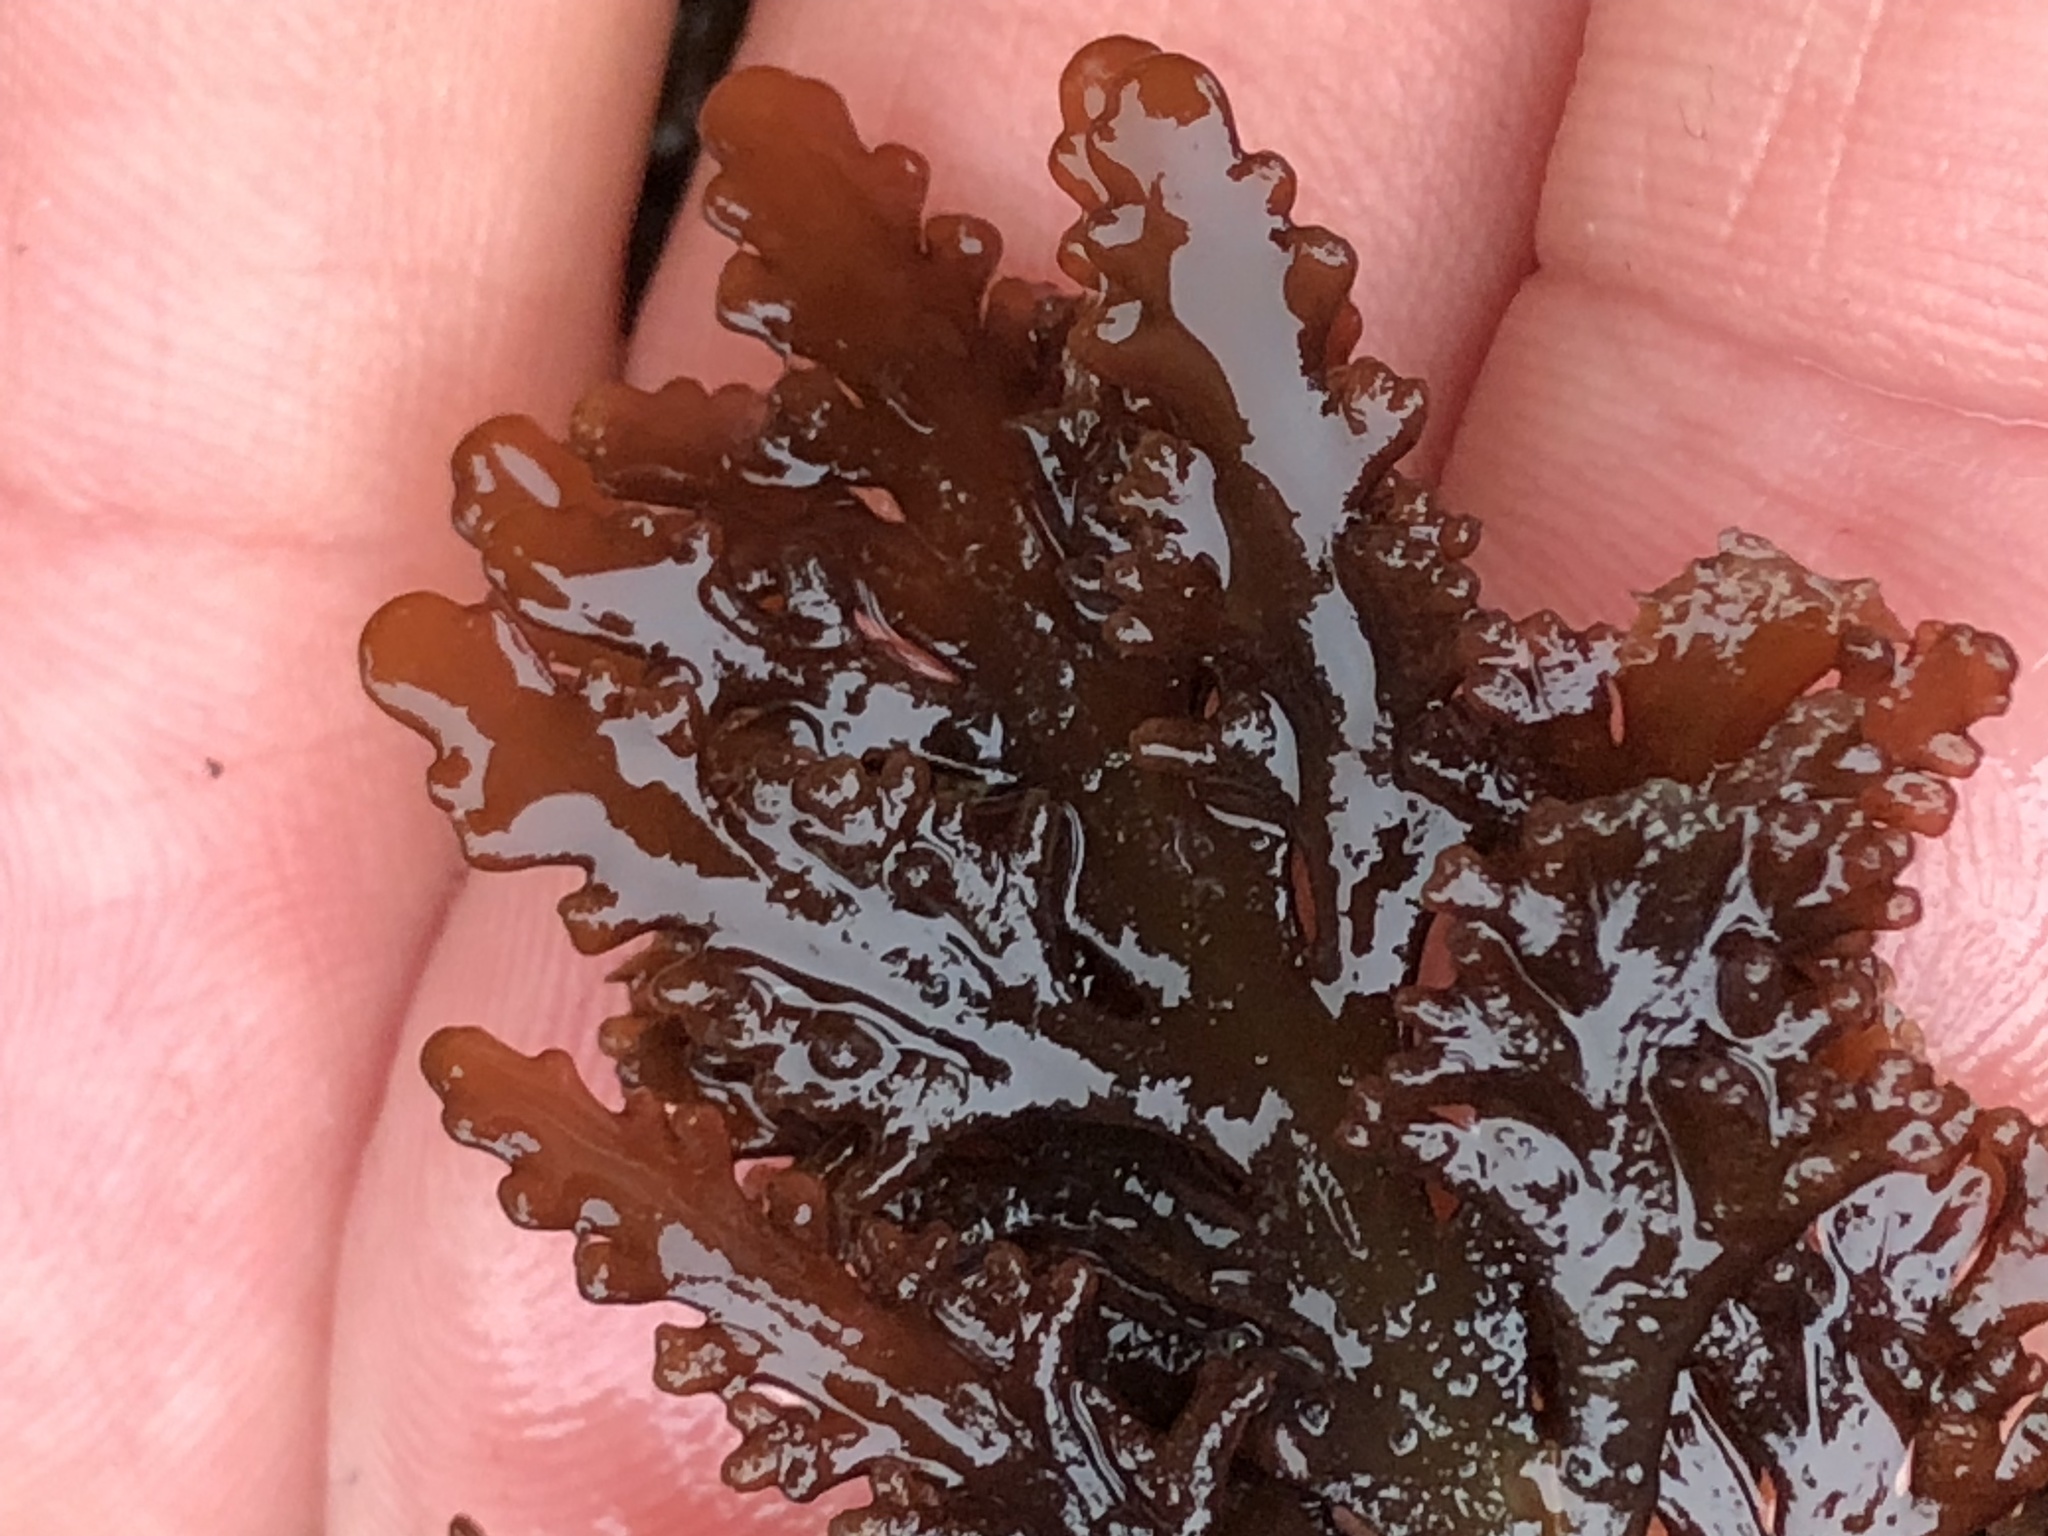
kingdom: Plantae
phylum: Rhodophyta
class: Florideophyceae
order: Ceramiales
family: Rhodomelaceae
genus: Osmundea
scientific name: Osmundea spectabilis
